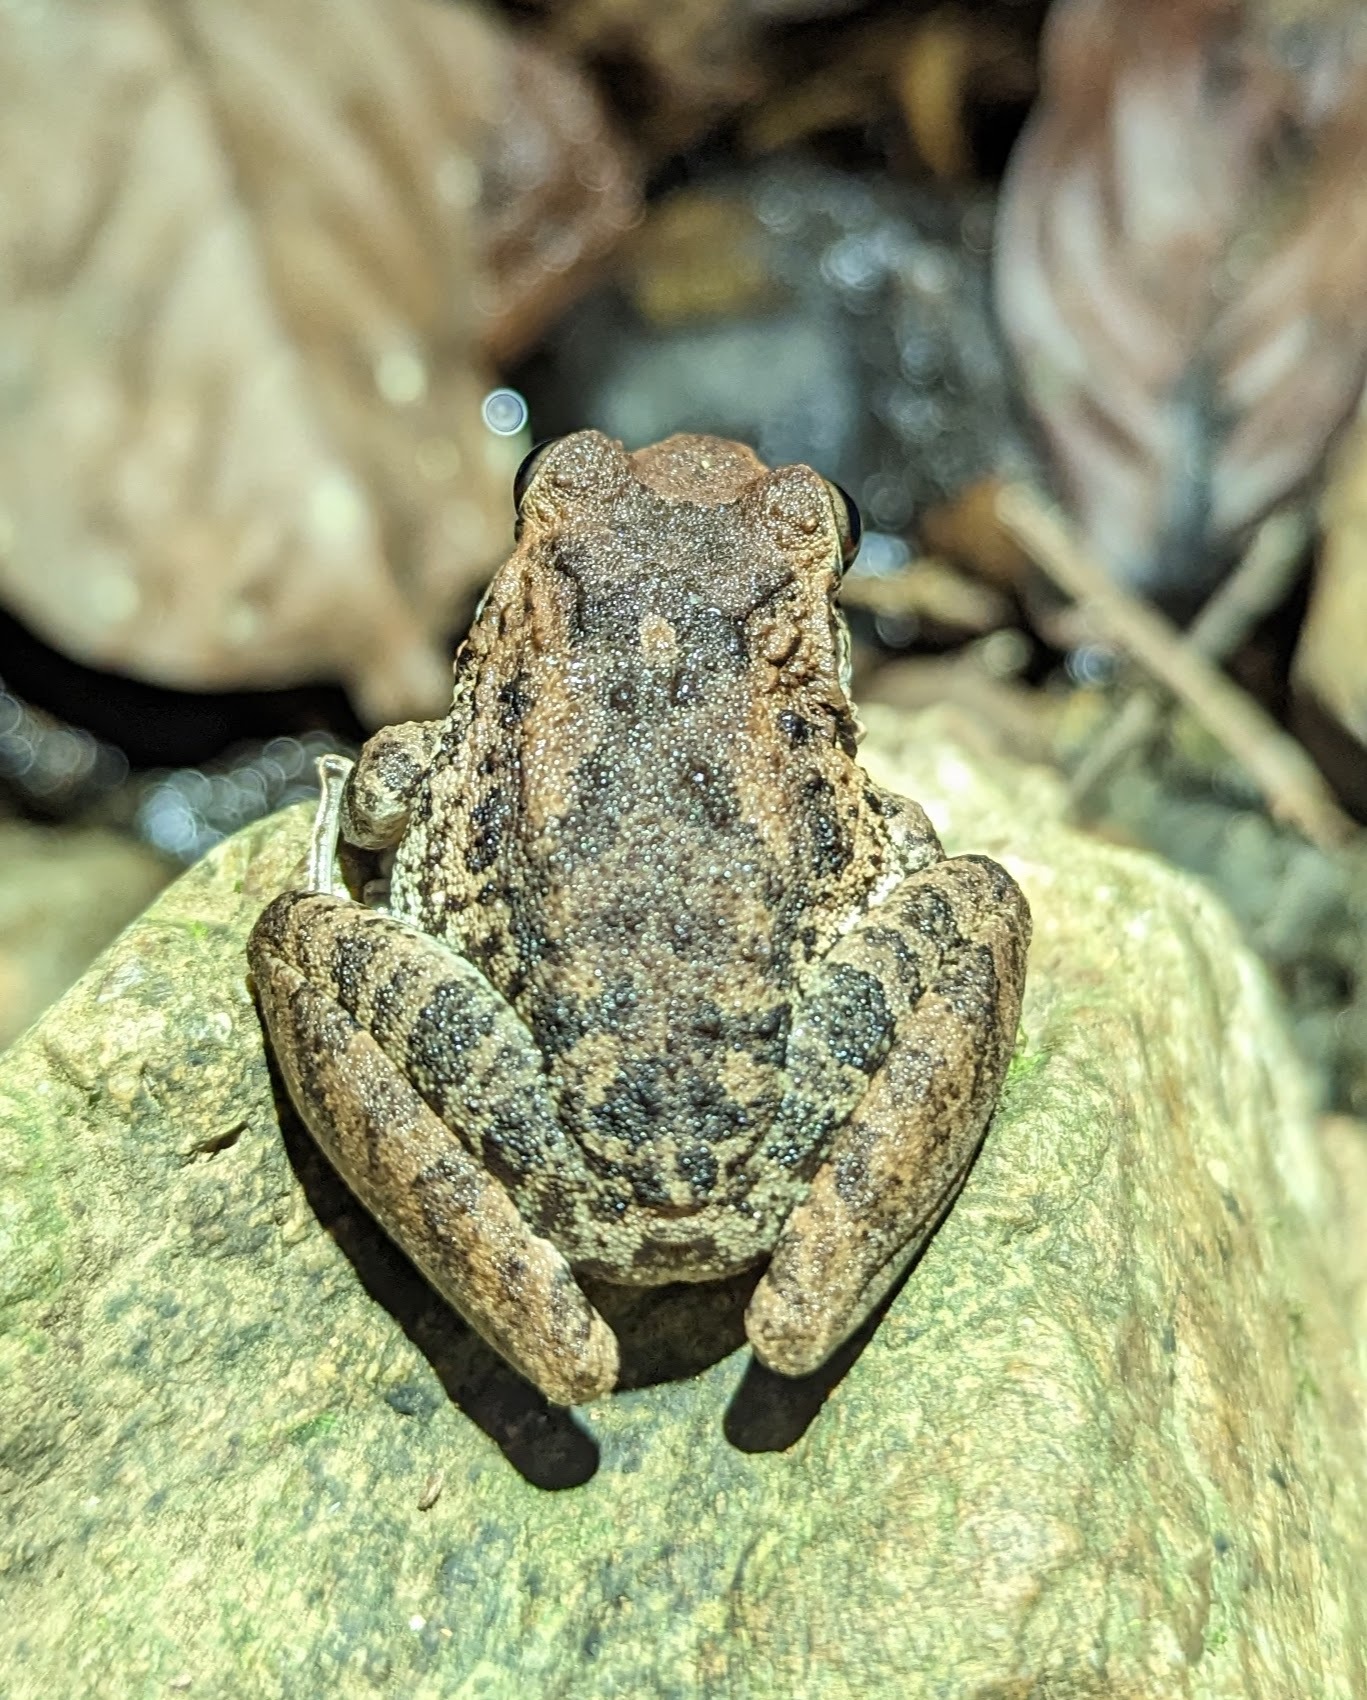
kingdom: Animalia
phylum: Chordata
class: Amphibia
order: Anura
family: Craugastoridae
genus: Craugastor
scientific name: Craugastor fitzingeri
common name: Fitzinger's robber frog
